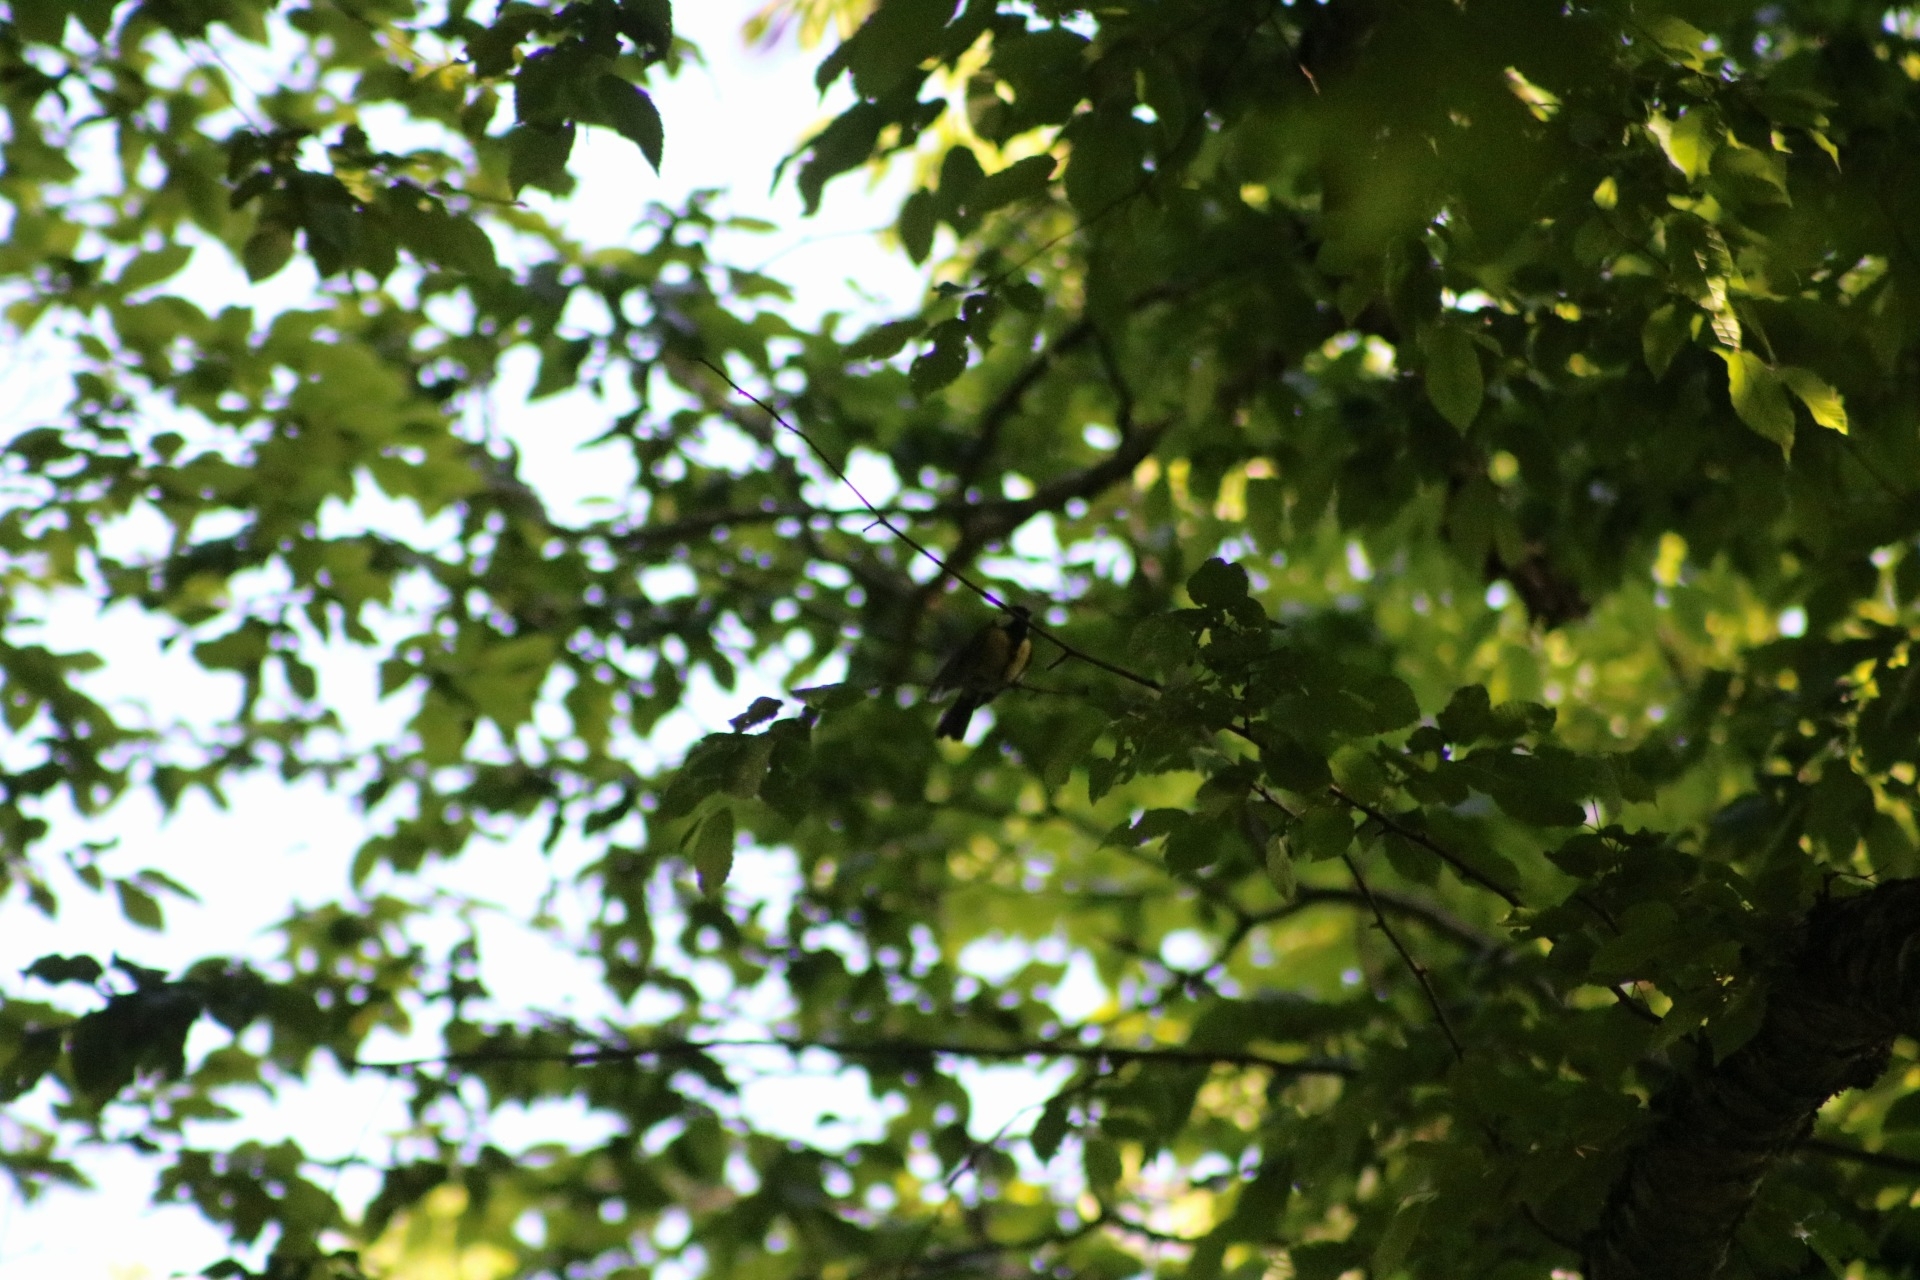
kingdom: Animalia
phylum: Chordata
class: Aves
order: Passeriformes
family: Paridae
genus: Parus
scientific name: Parus major
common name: Great tit
